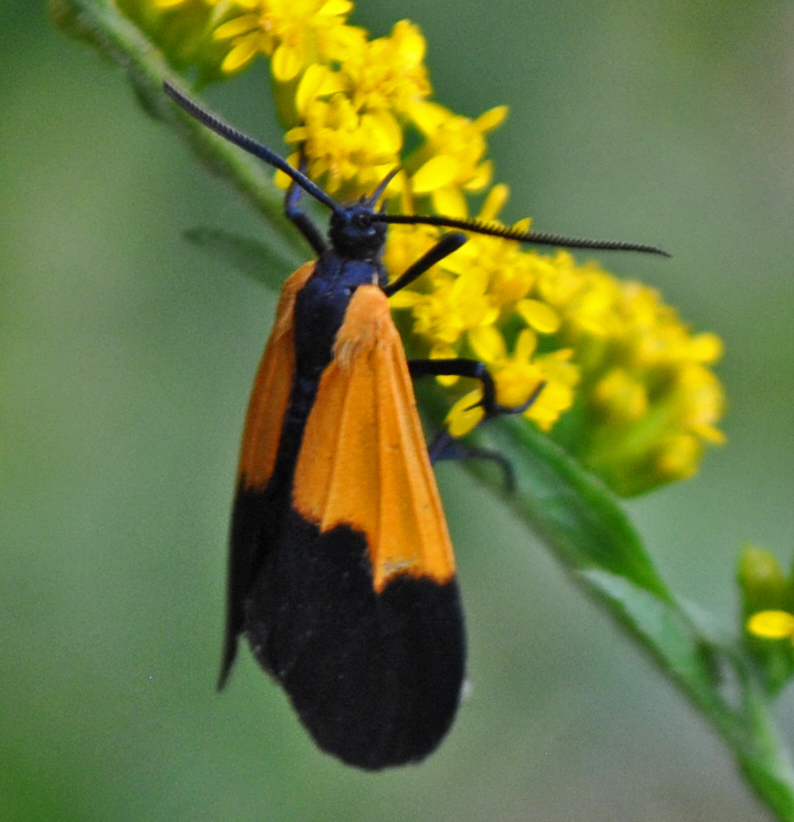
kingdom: Animalia
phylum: Arthropoda
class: Insecta
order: Lepidoptera
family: Erebidae
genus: Lycomorpha
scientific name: Lycomorpha pholus
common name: Black-and-yellow lichen moth
